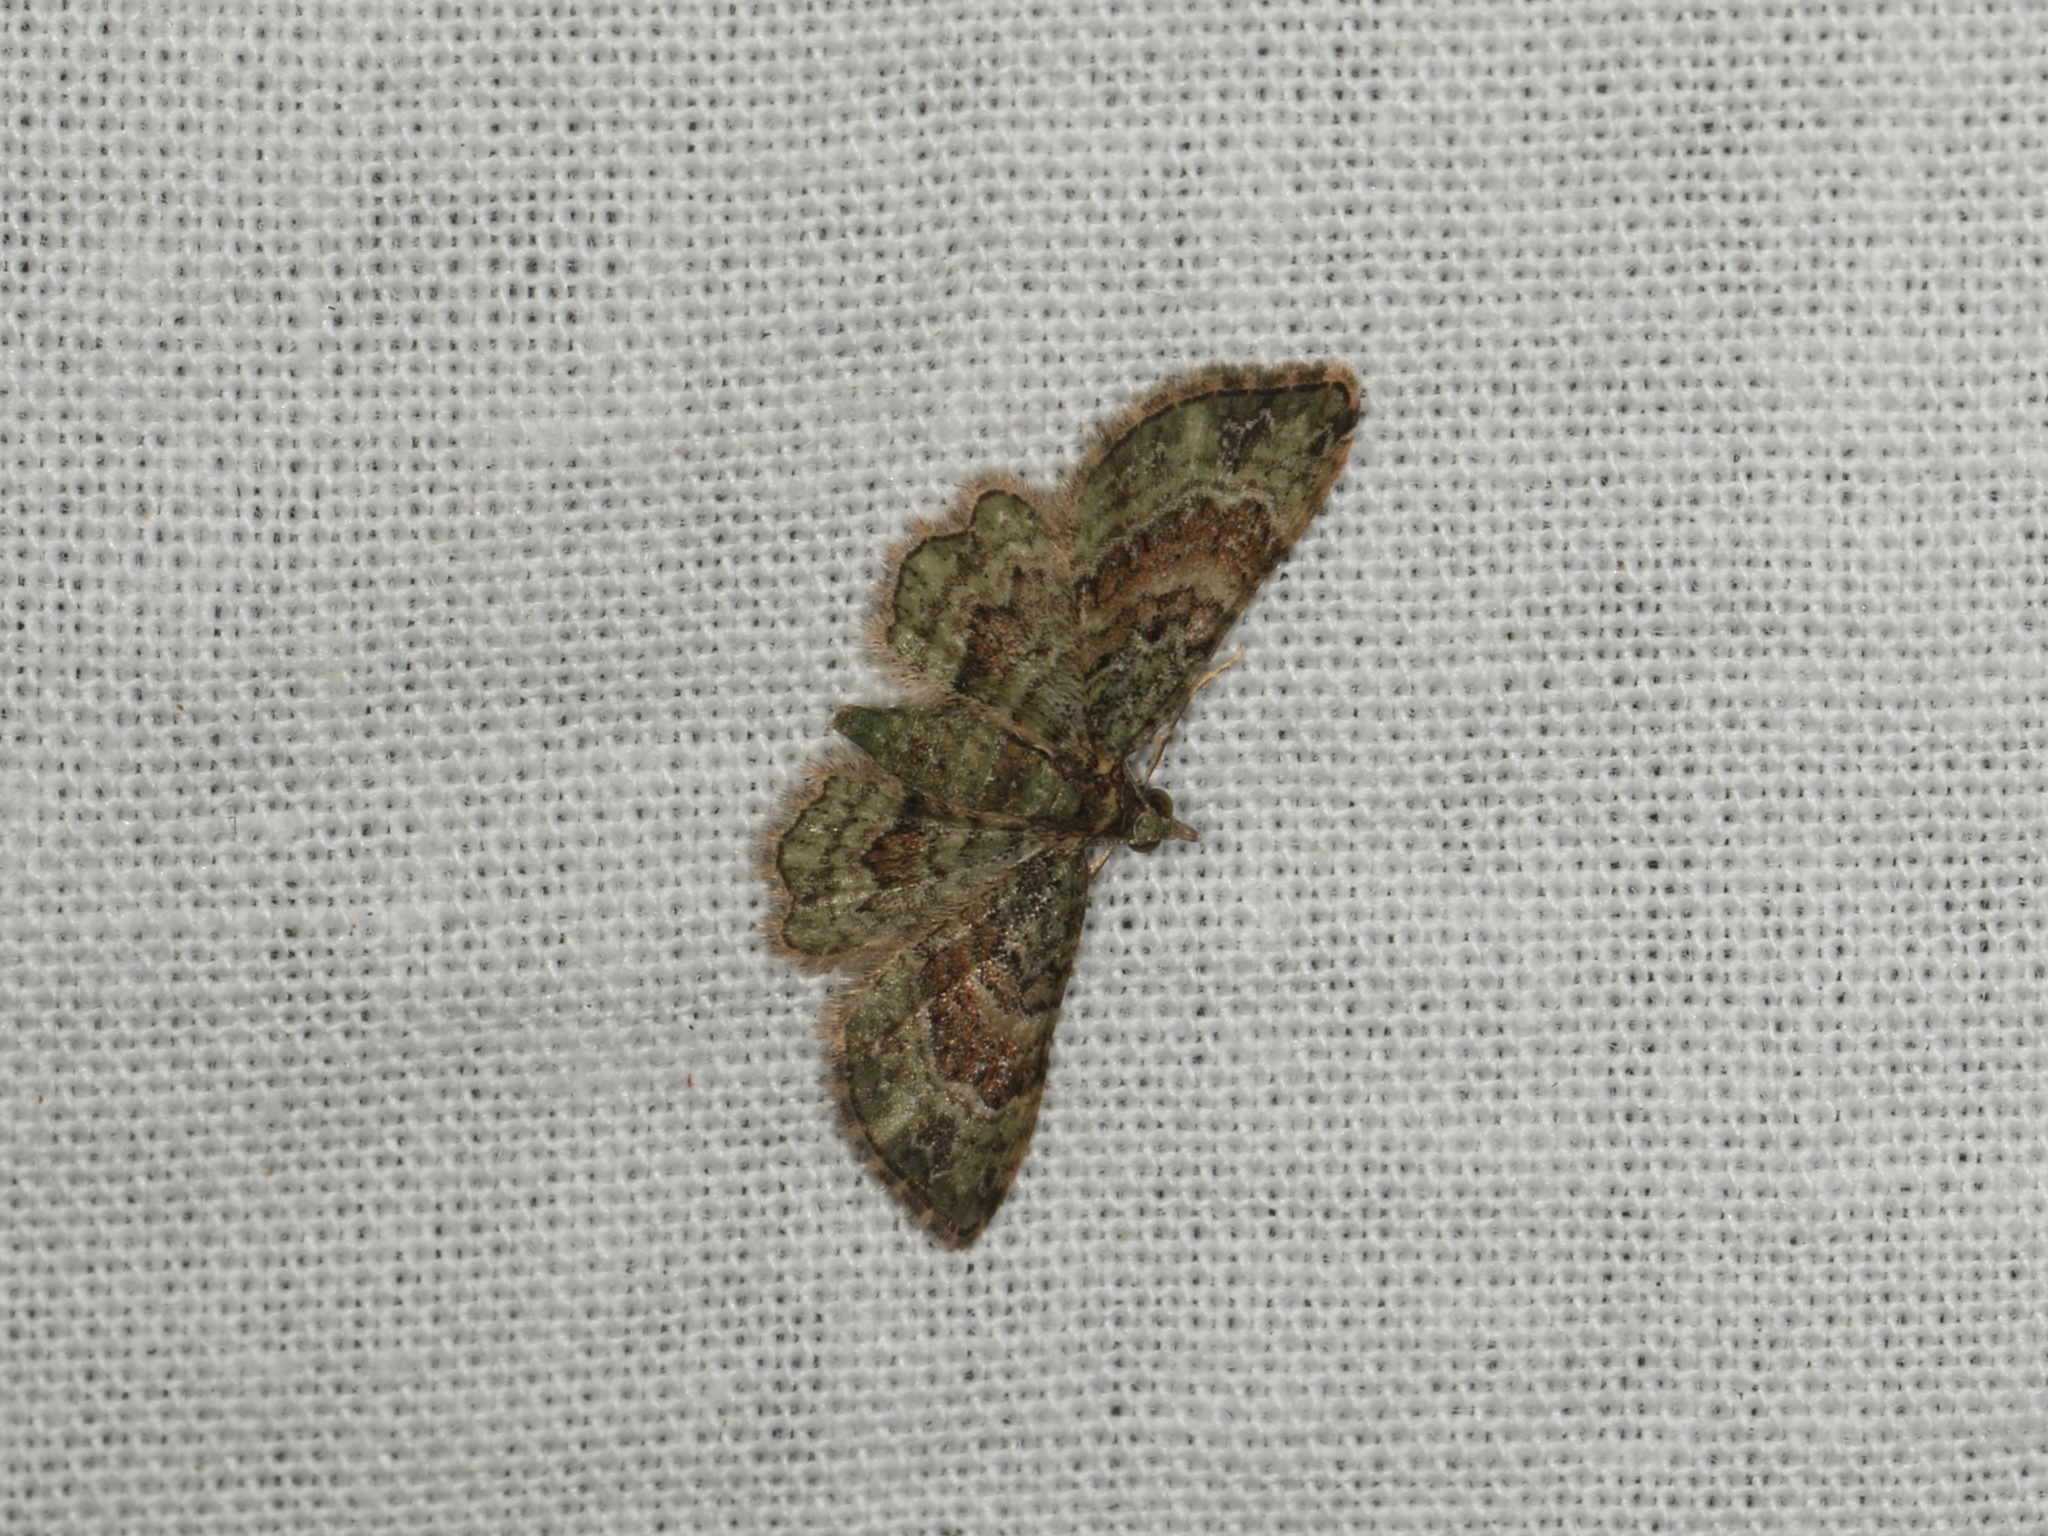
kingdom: Animalia
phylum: Arthropoda
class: Insecta
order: Lepidoptera
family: Geometridae
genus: Chloroclystis
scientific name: Chloroclystis catastreptes
